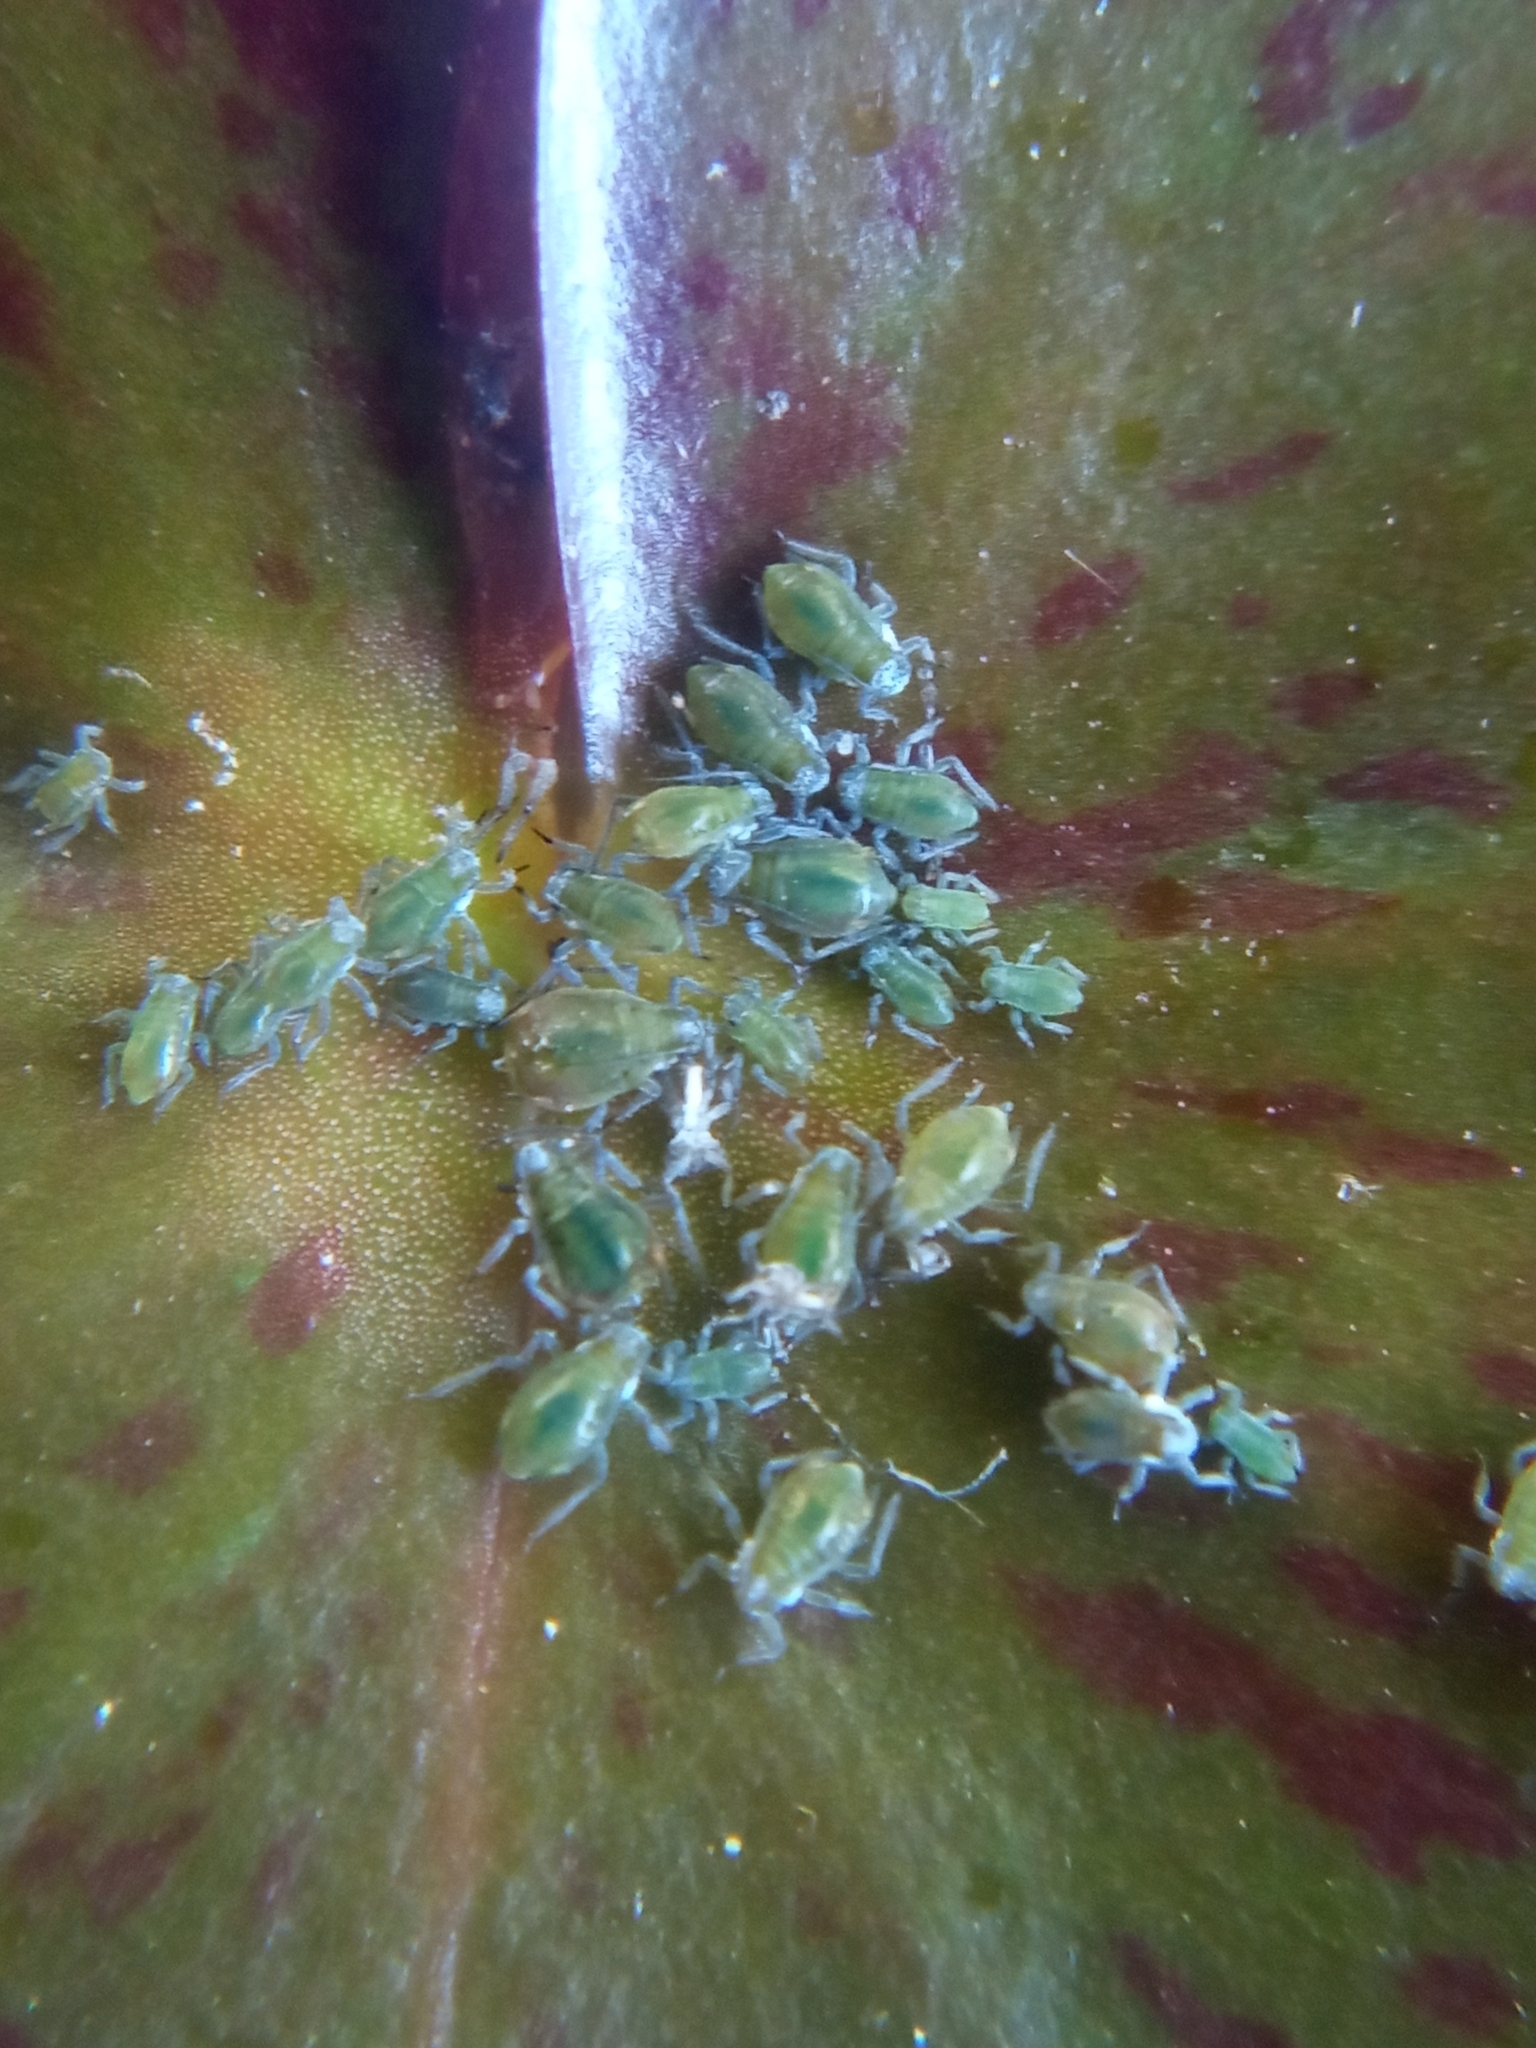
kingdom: Animalia
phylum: Arthropoda
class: Insecta
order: Hemiptera
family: Aphididae
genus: Rhopalosiphum
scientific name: Rhopalosiphum nymphaeae
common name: Water lily aphid
